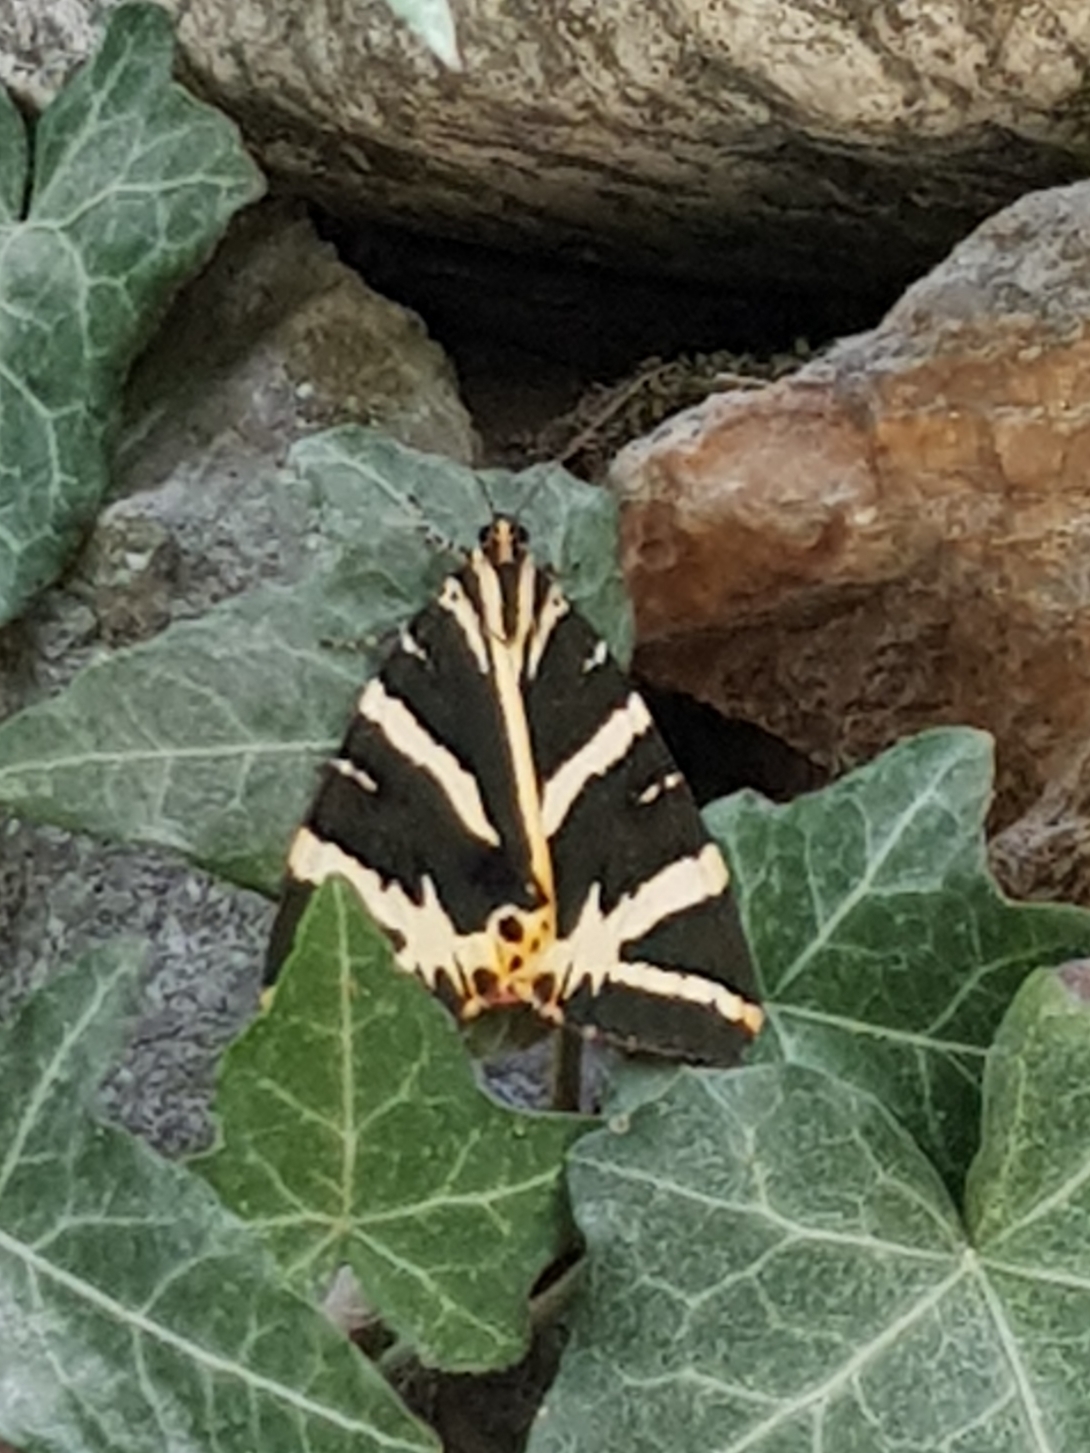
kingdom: Animalia
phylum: Arthropoda
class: Insecta
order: Lepidoptera
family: Erebidae
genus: Euplagia
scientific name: Euplagia quadripunctaria
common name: Jersey tiger
